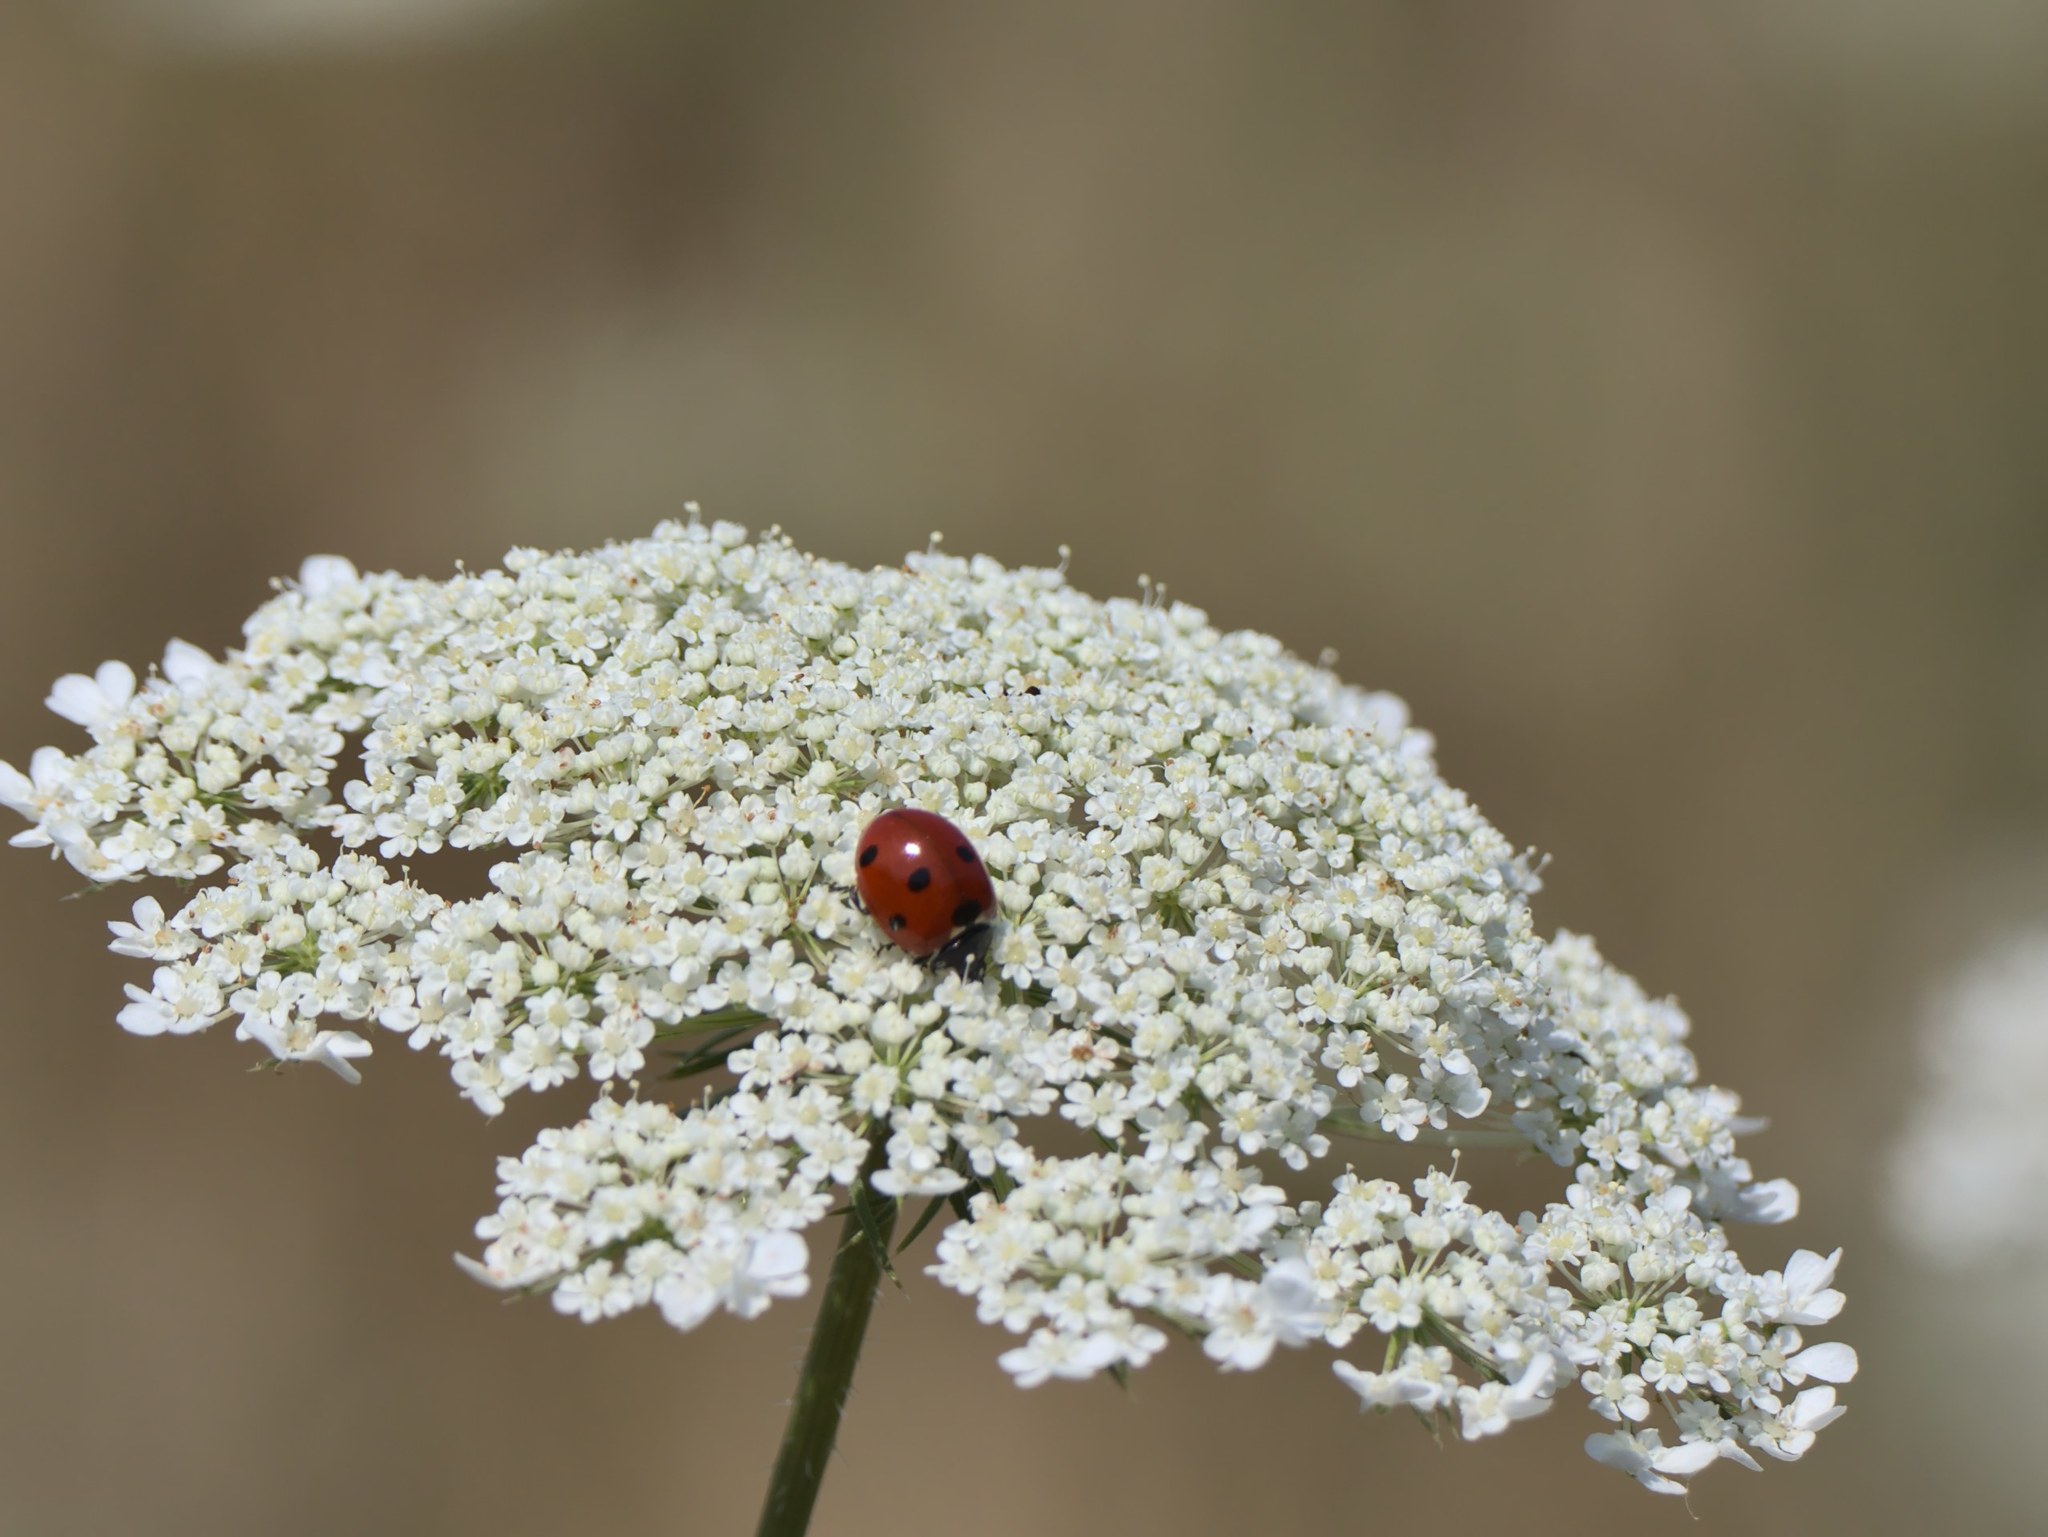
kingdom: Animalia
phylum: Arthropoda
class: Insecta
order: Coleoptera
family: Coccinellidae
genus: Coccinella
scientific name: Coccinella septempunctata
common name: Sevenspotted lady beetle
